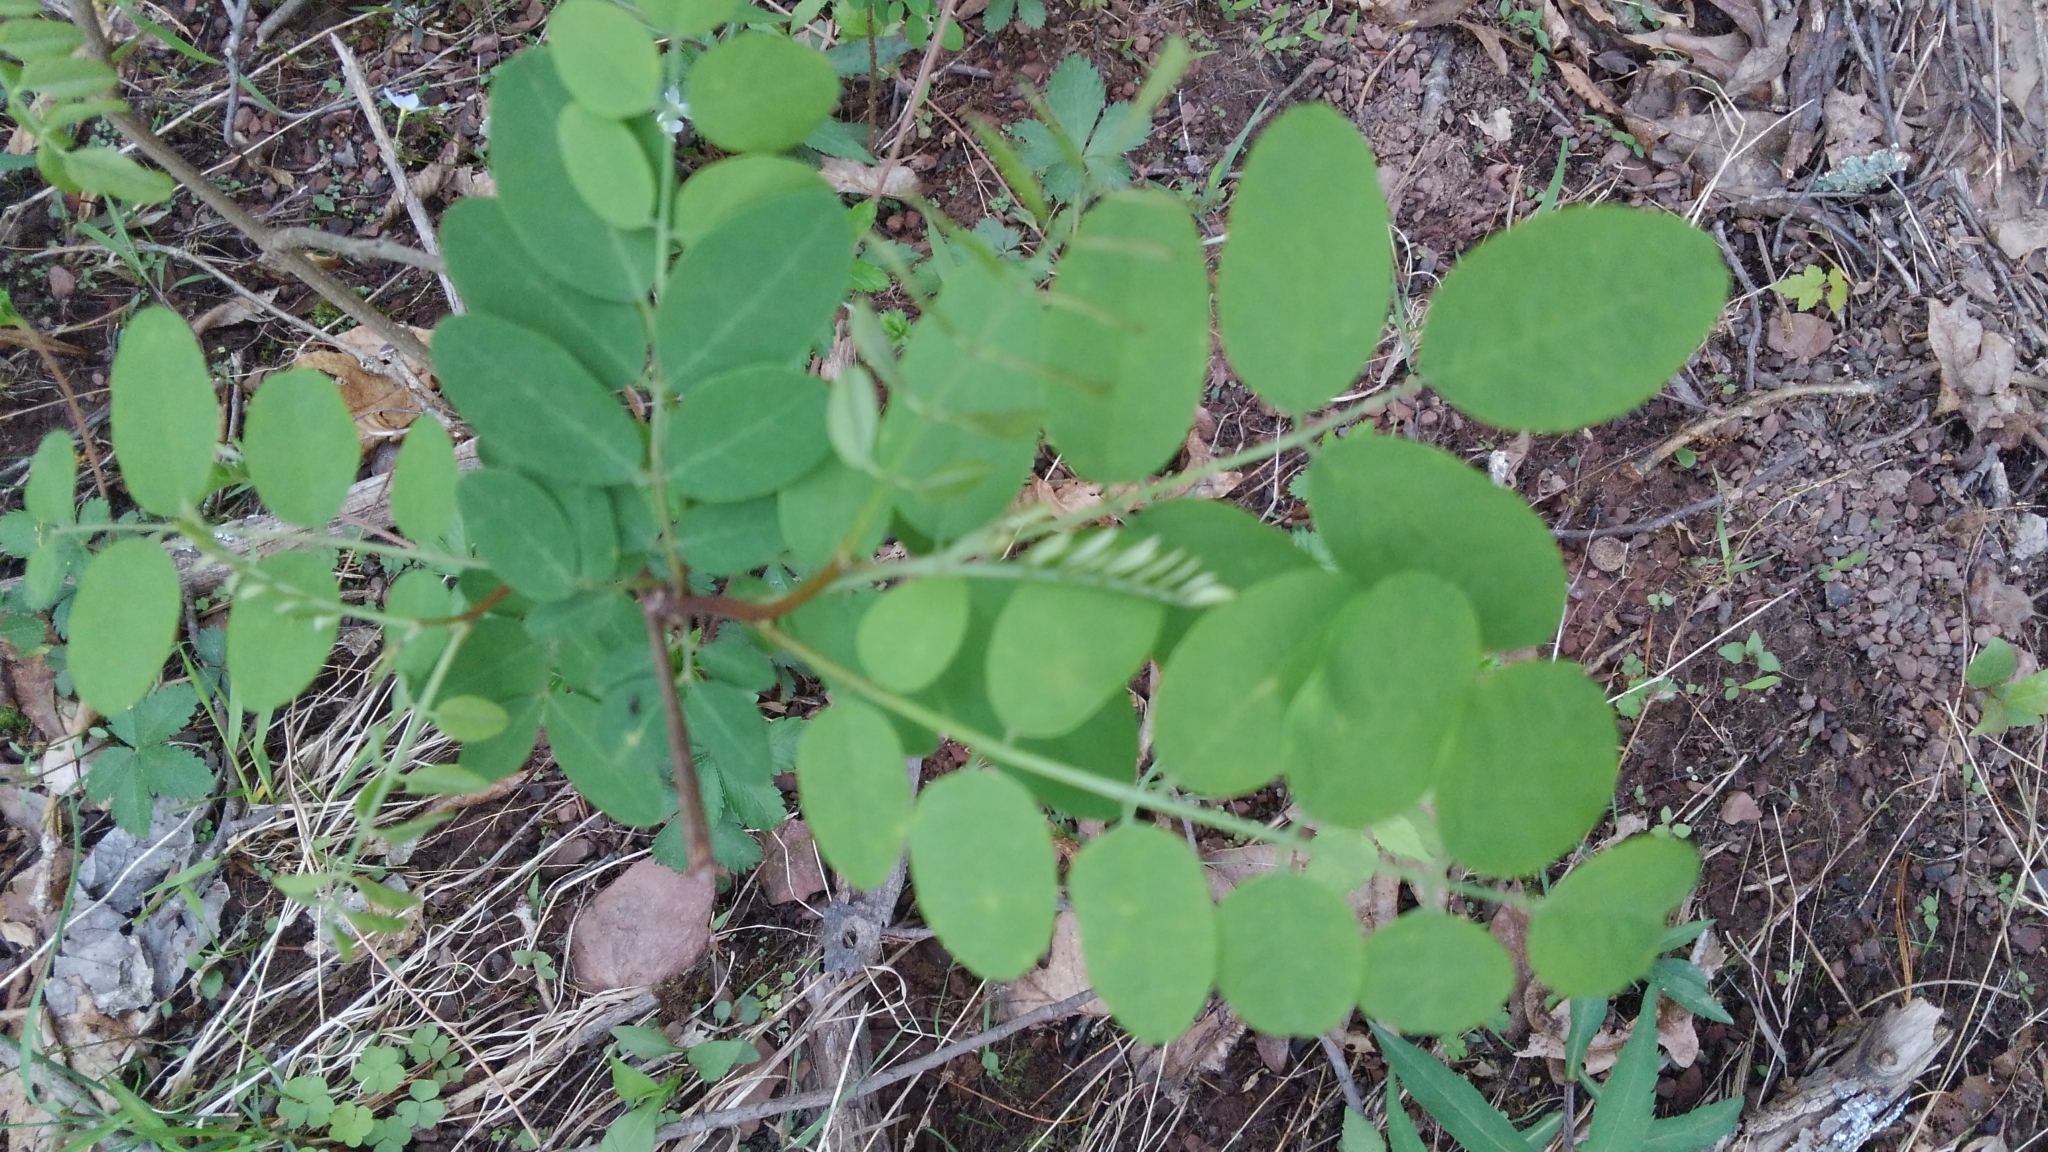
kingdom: Plantae
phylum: Tracheophyta
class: Magnoliopsida
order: Fabales
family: Fabaceae
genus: Robinia
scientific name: Robinia pseudoacacia
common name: Black locust
